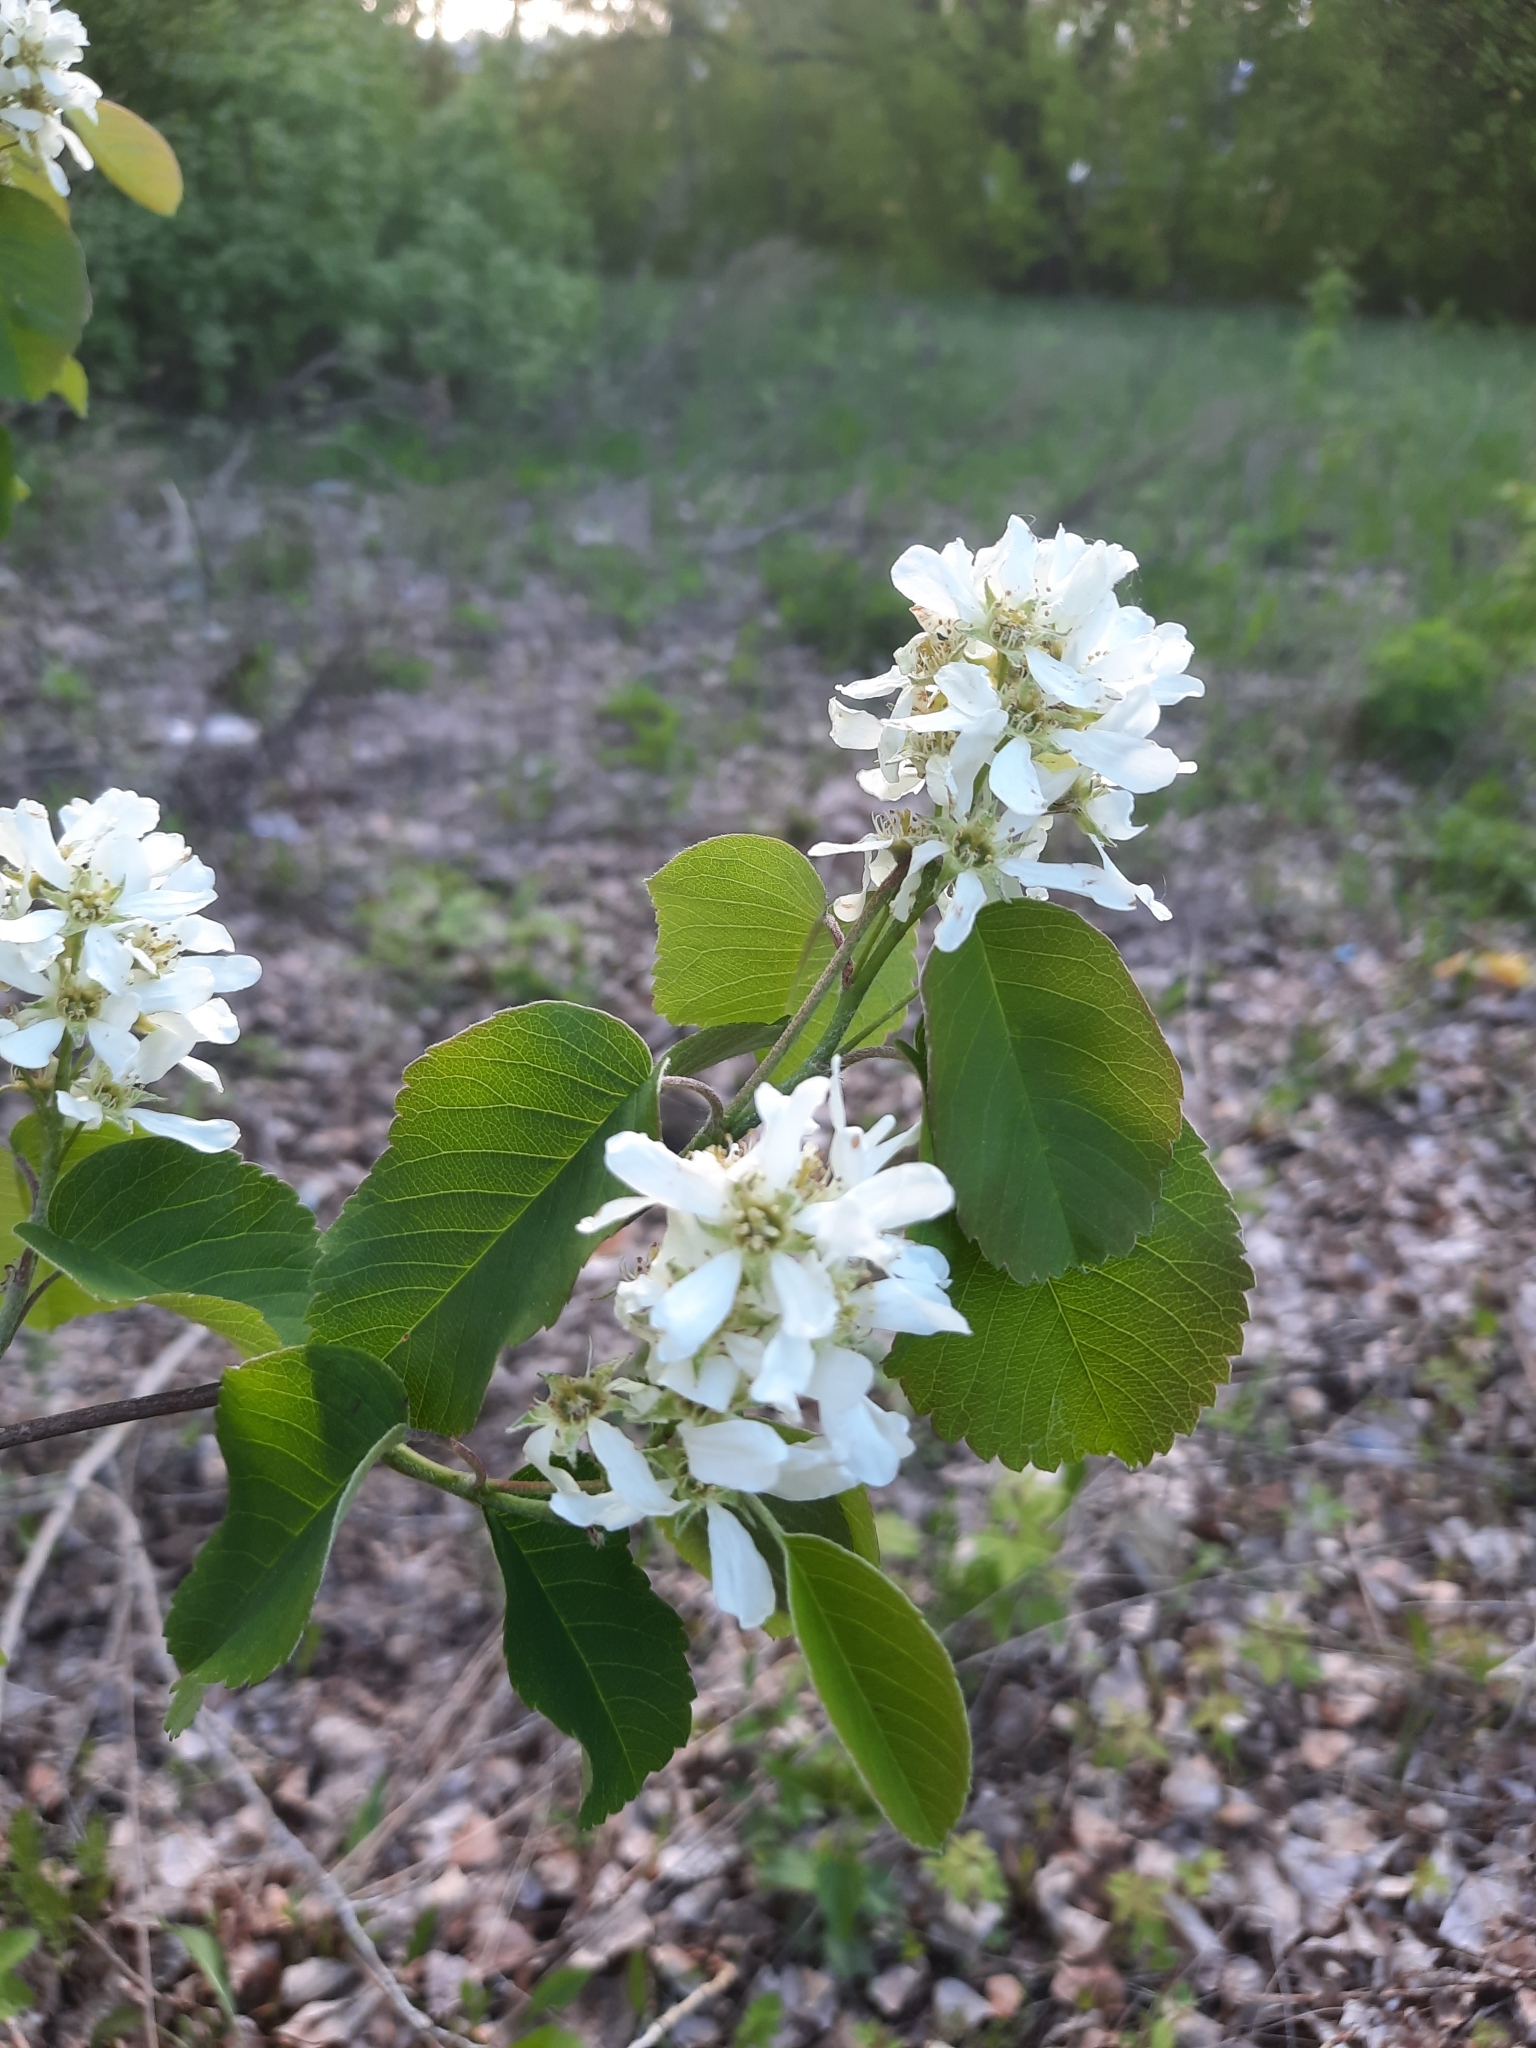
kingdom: Plantae
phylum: Tracheophyta
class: Magnoliopsida
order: Rosales
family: Rosaceae
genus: Amelanchier
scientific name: Amelanchier alnifolia
